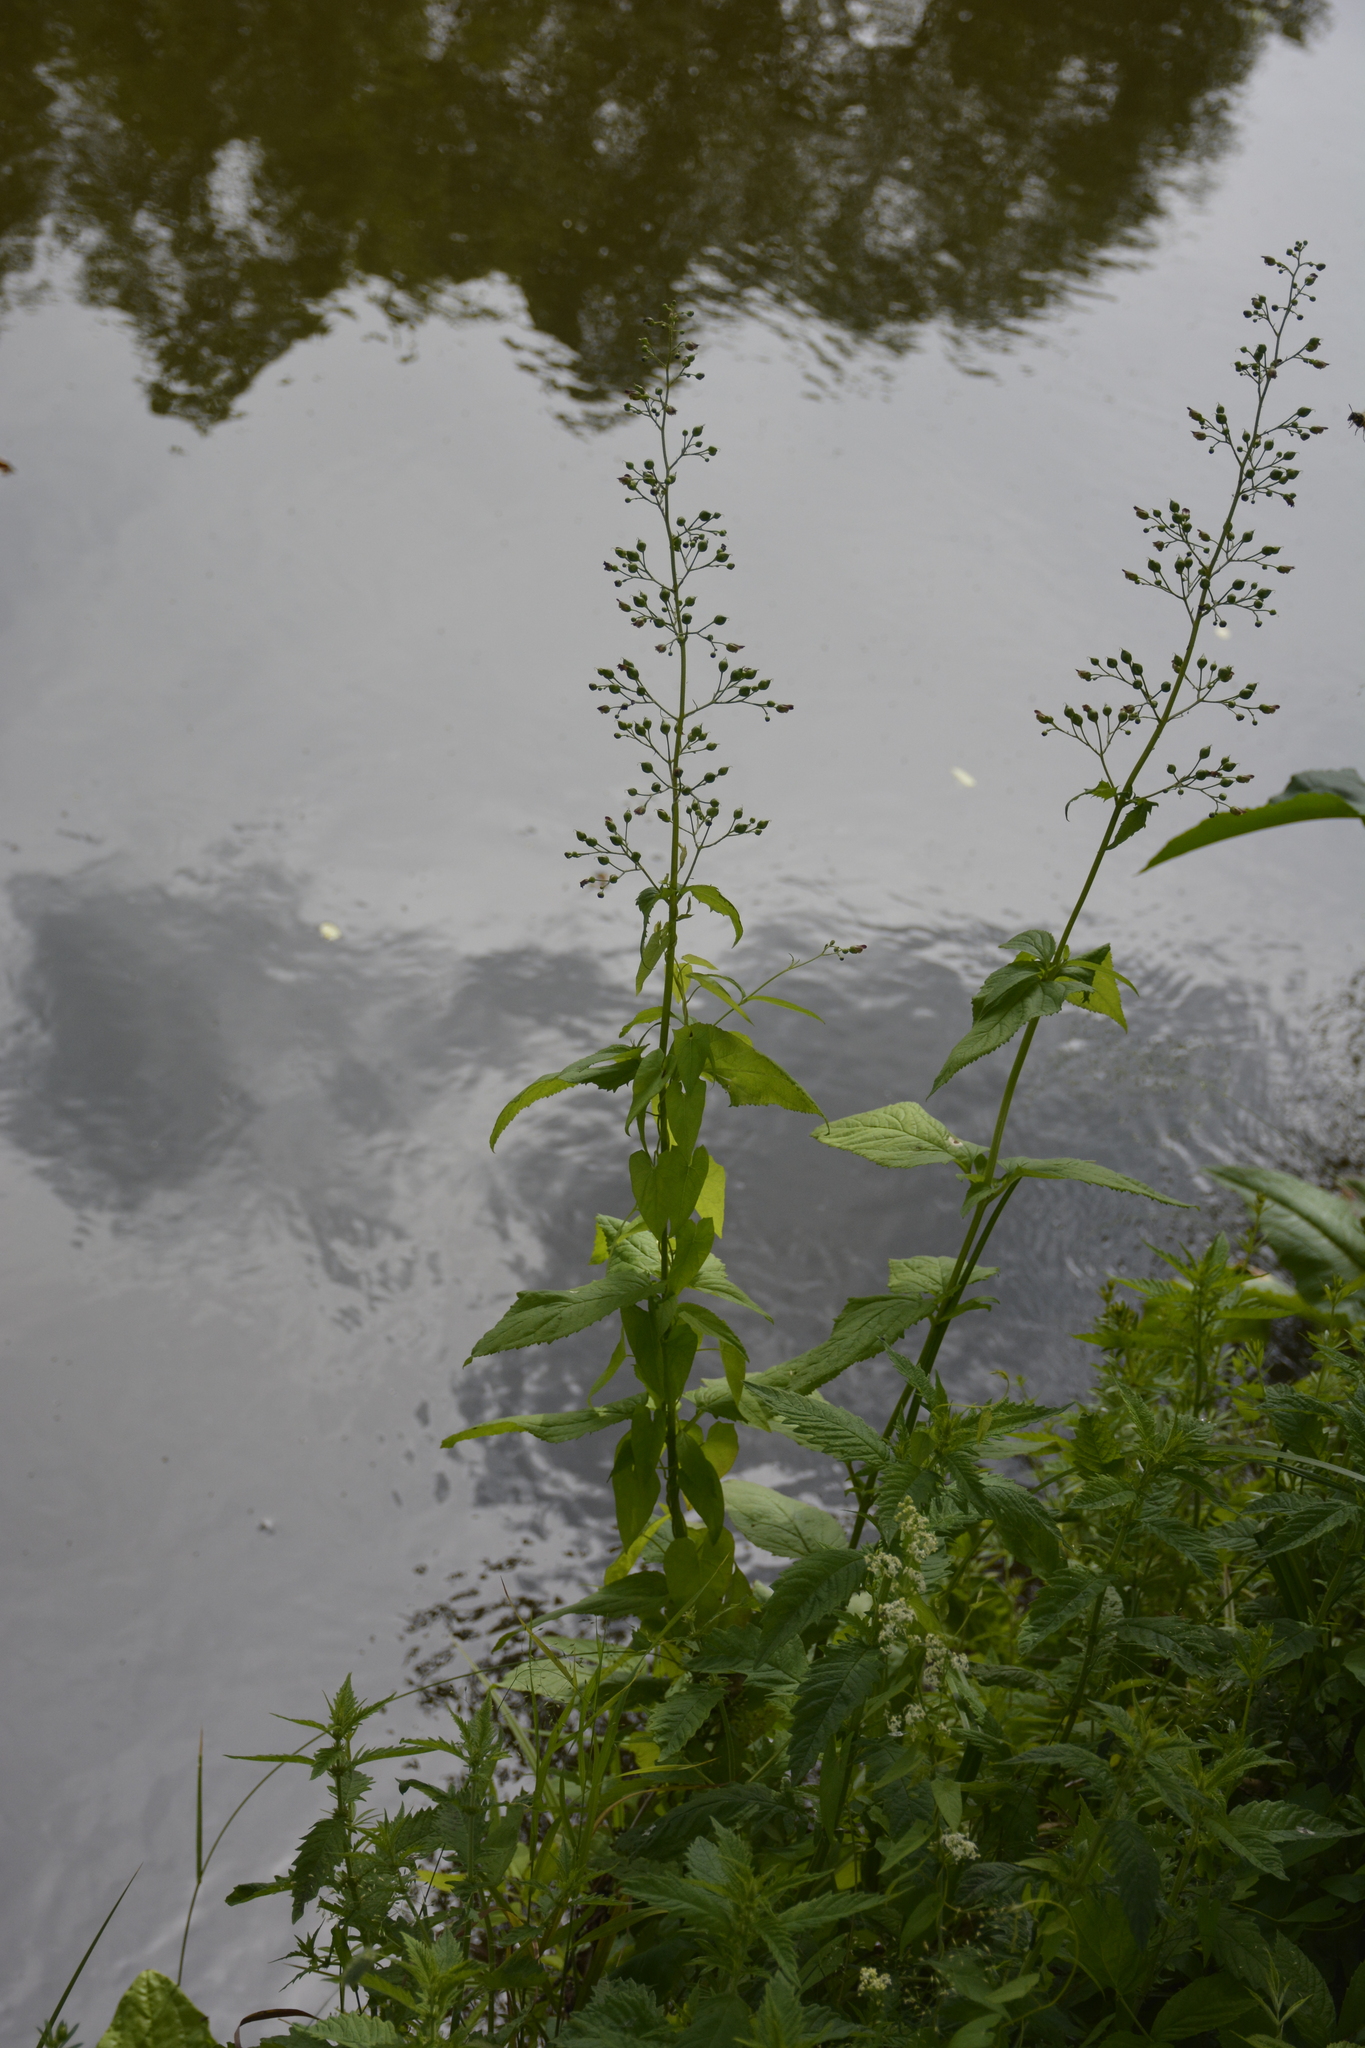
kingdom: Plantae
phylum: Tracheophyta
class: Magnoliopsida
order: Lamiales
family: Scrophulariaceae
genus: Scrophularia
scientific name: Scrophularia nodosa
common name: Common figwort
